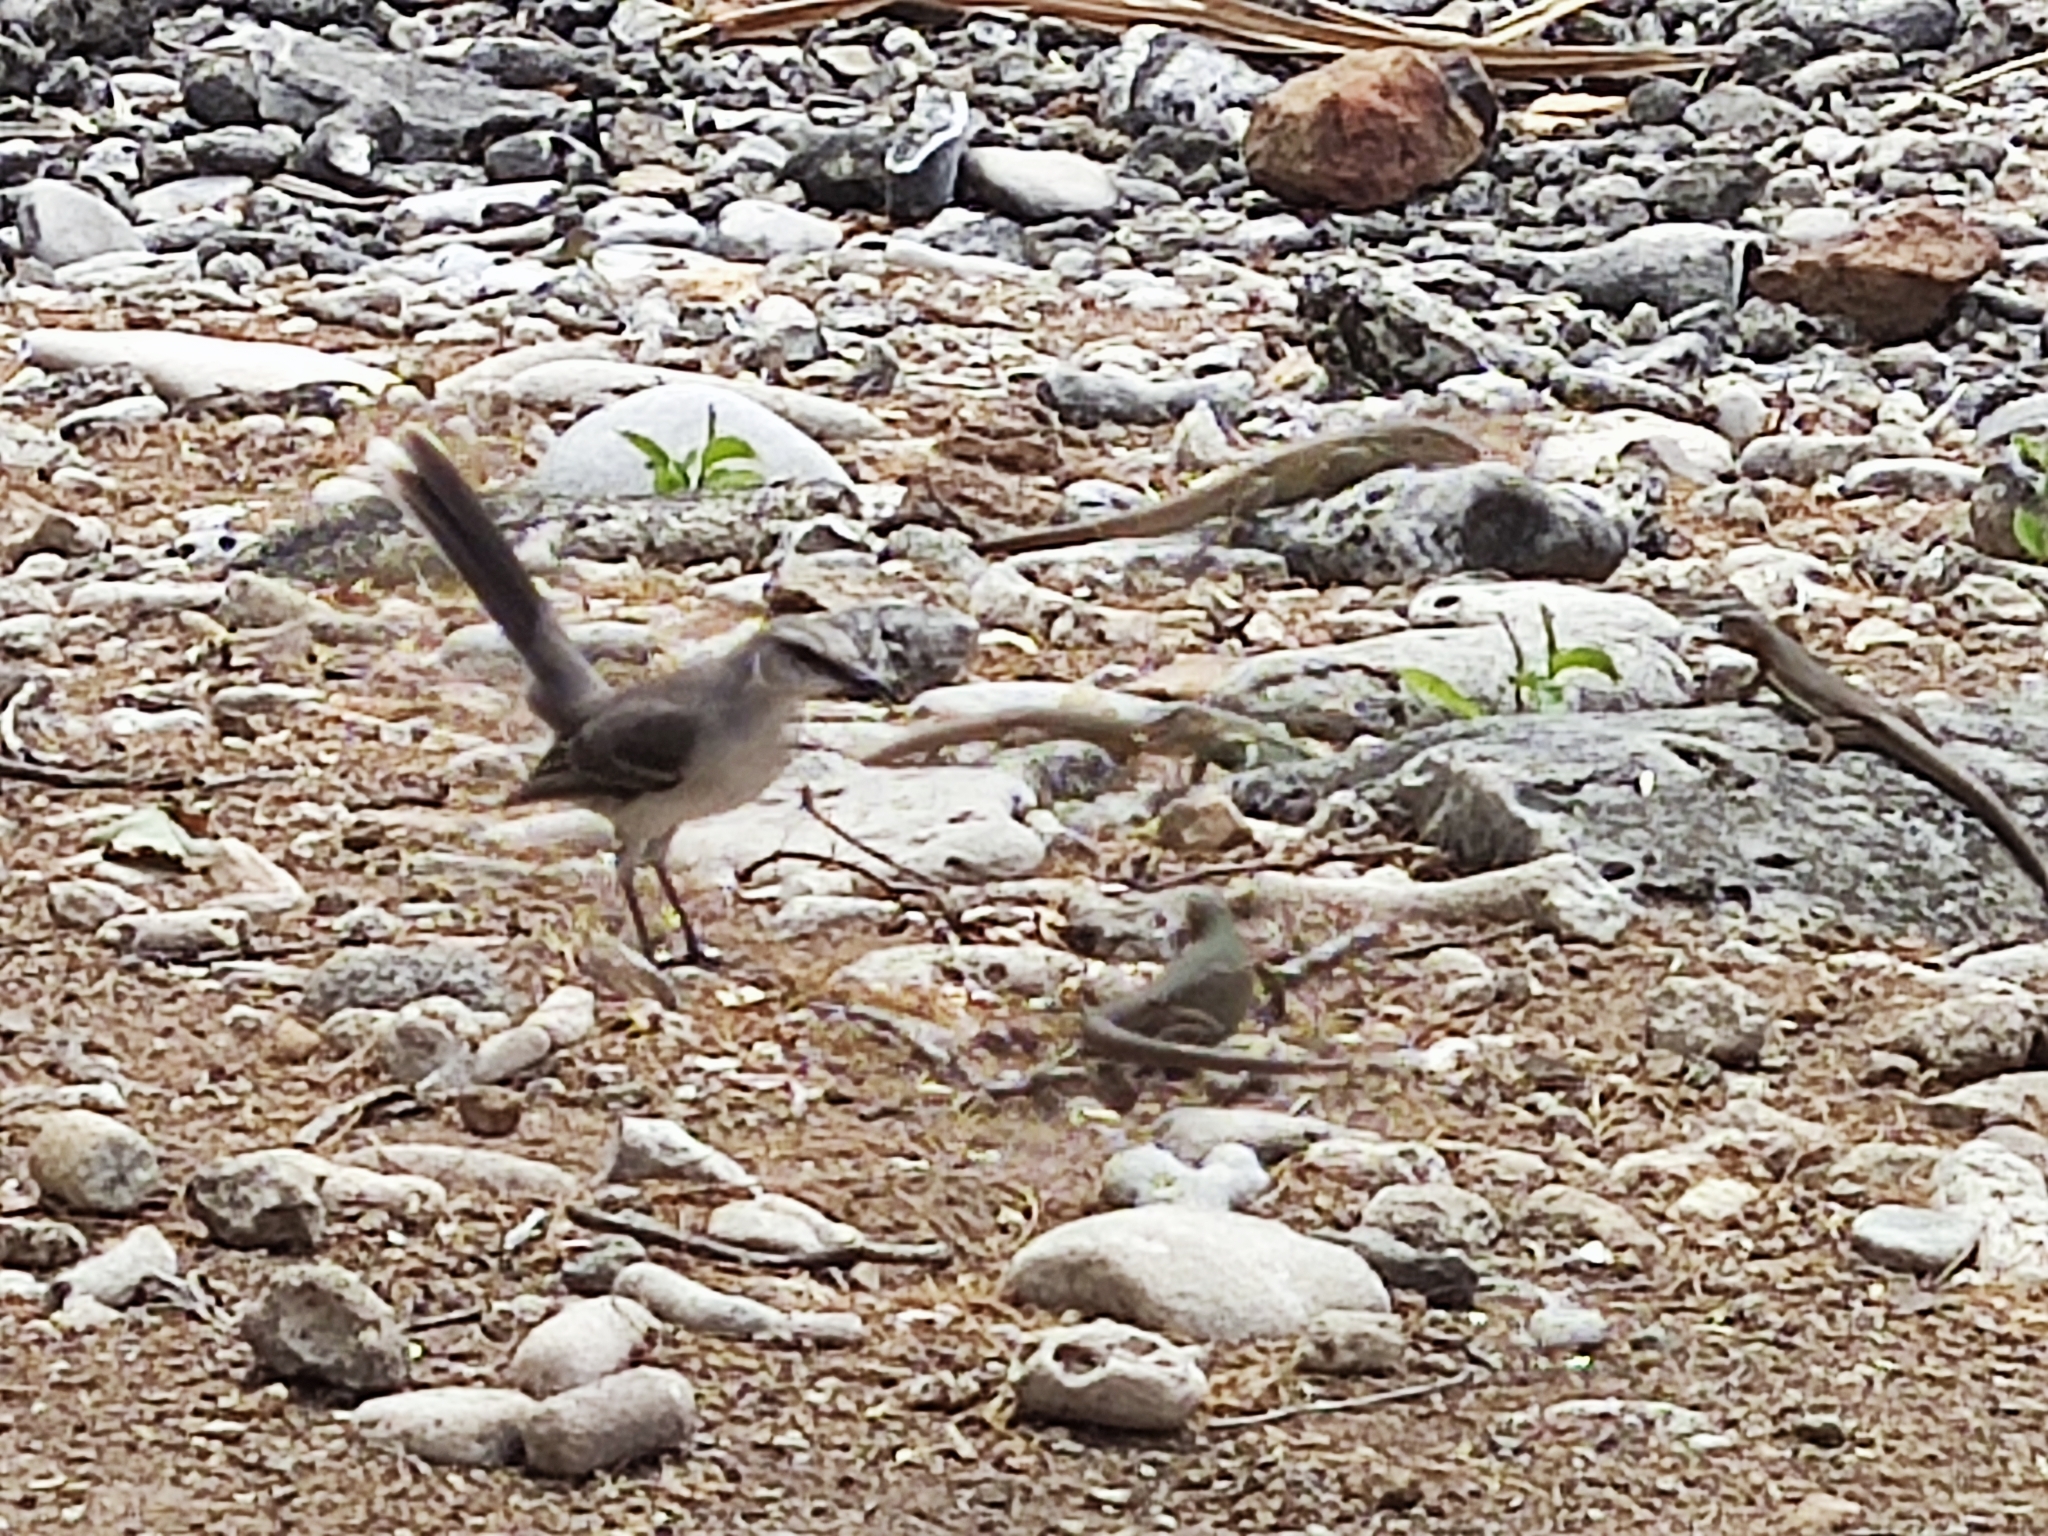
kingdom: Animalia
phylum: Chordata
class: Aves
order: Passeriformes
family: Mimidae
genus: Mimus
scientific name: Mimus gilvus
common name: Tropical mockingbird
